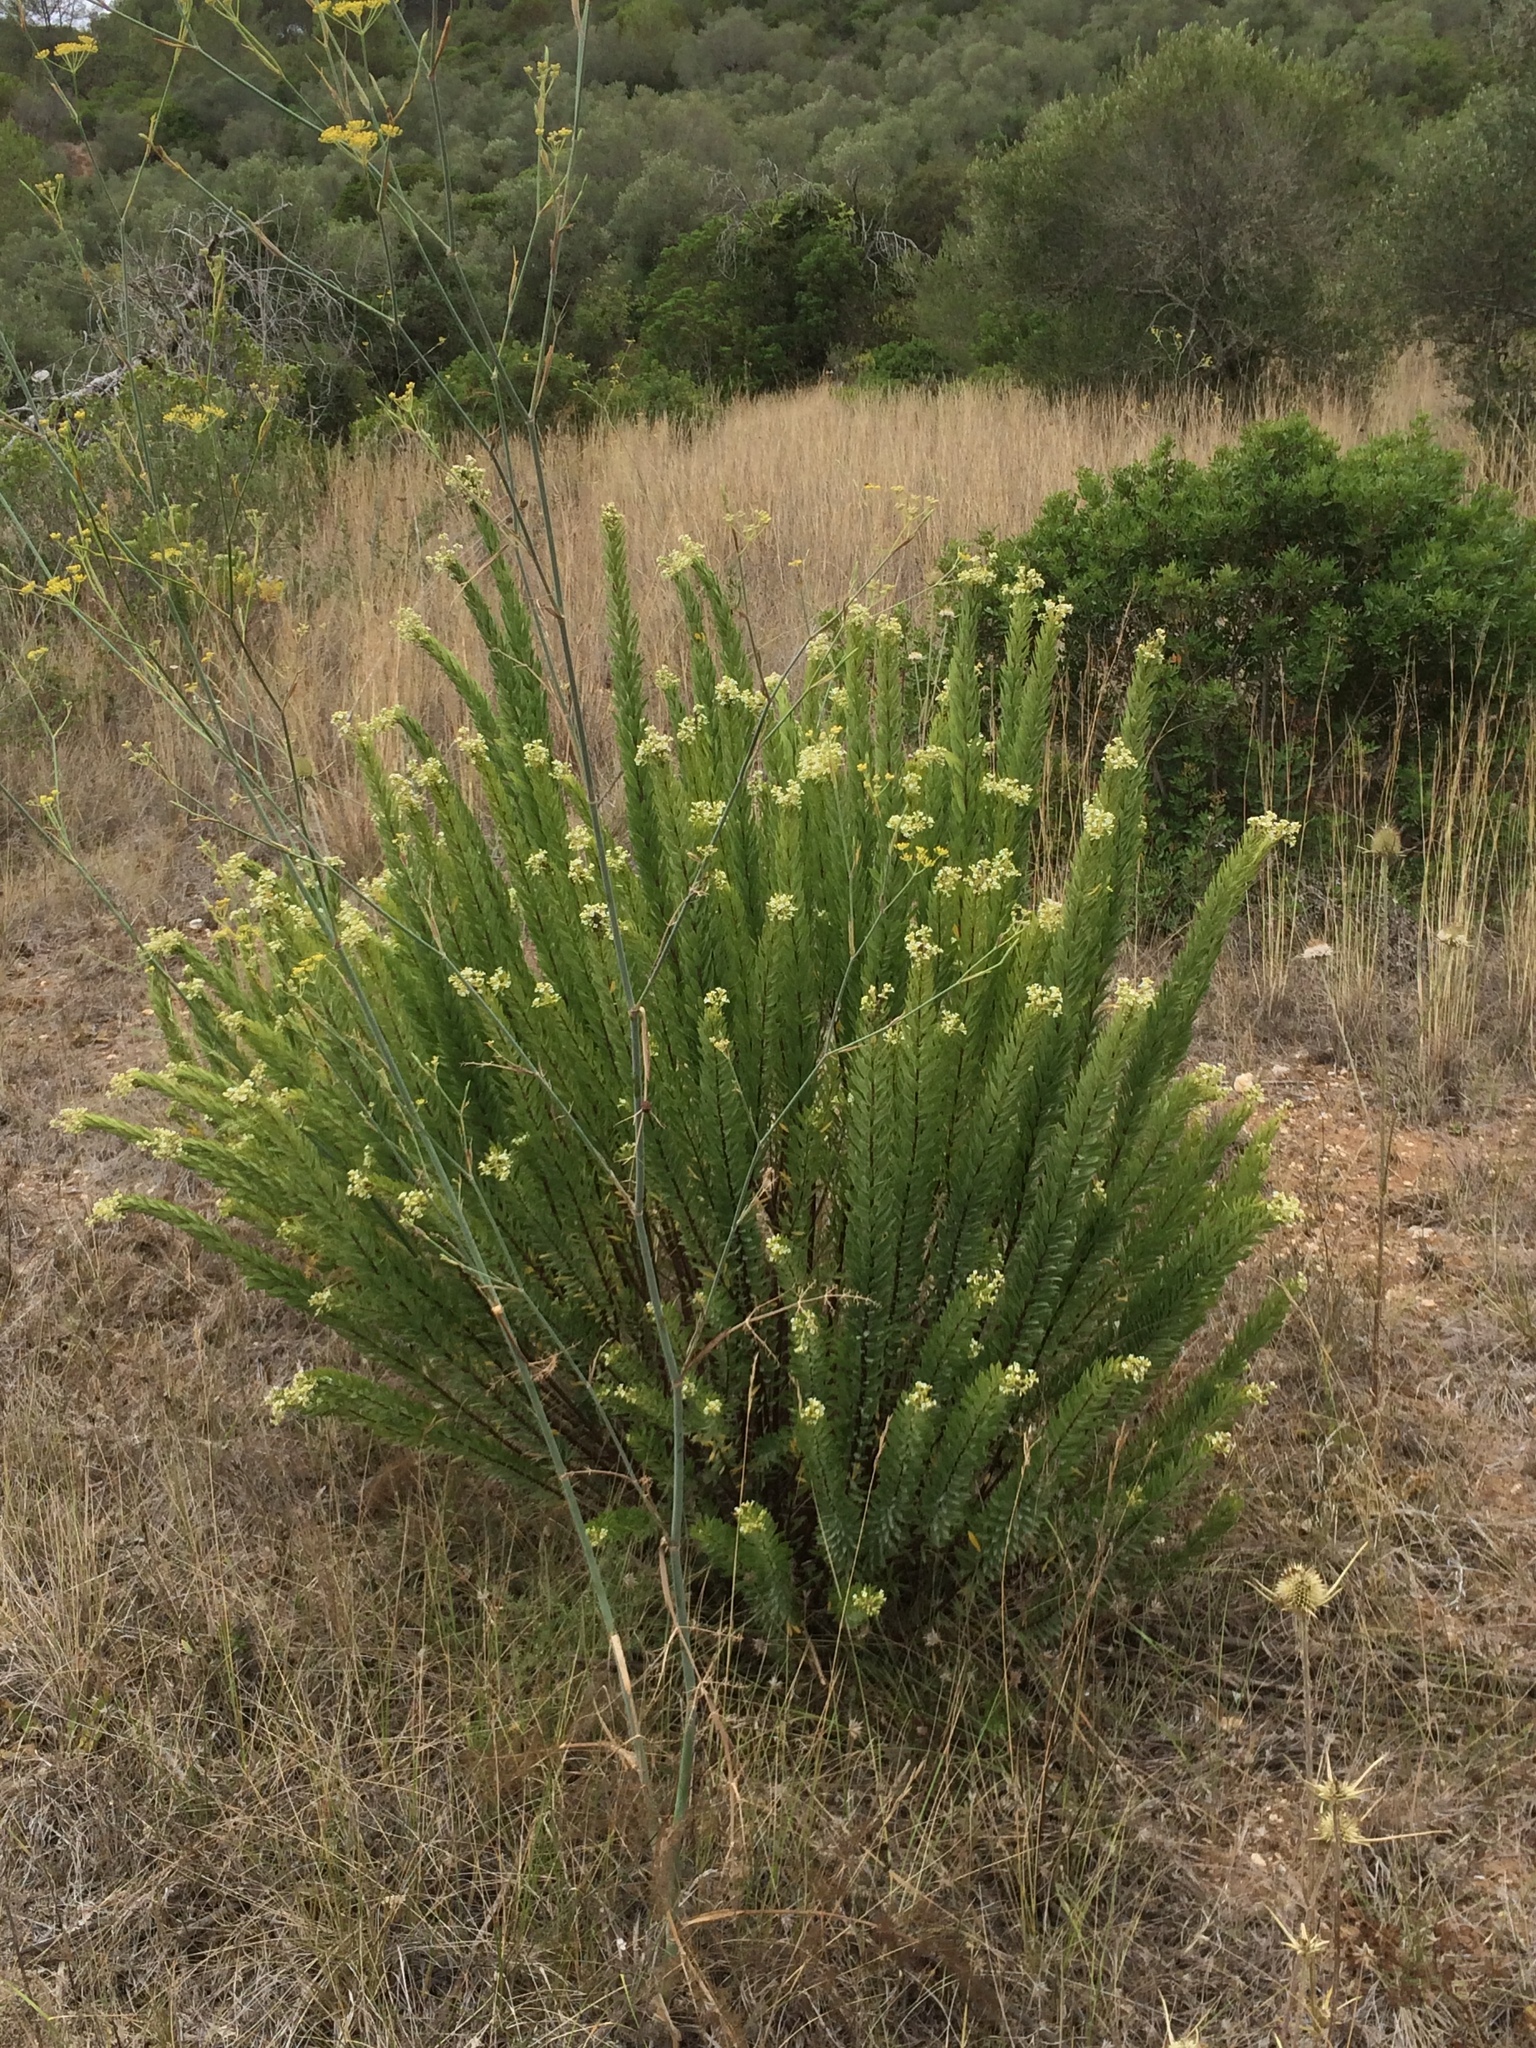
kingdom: Plantae
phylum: Tracheophyta
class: Magnoliopsida
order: Malvales
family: Thymelaeaceae
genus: Daphne
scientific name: Daphne gnidium
